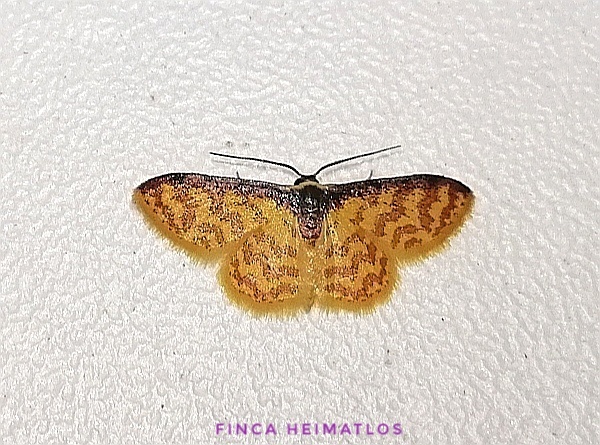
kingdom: Animalia
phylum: Arthropoda
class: Insecta
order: Lepidoptera
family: Geometridae
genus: Tricentrogyna
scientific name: Tricentrogyna flexivitta
